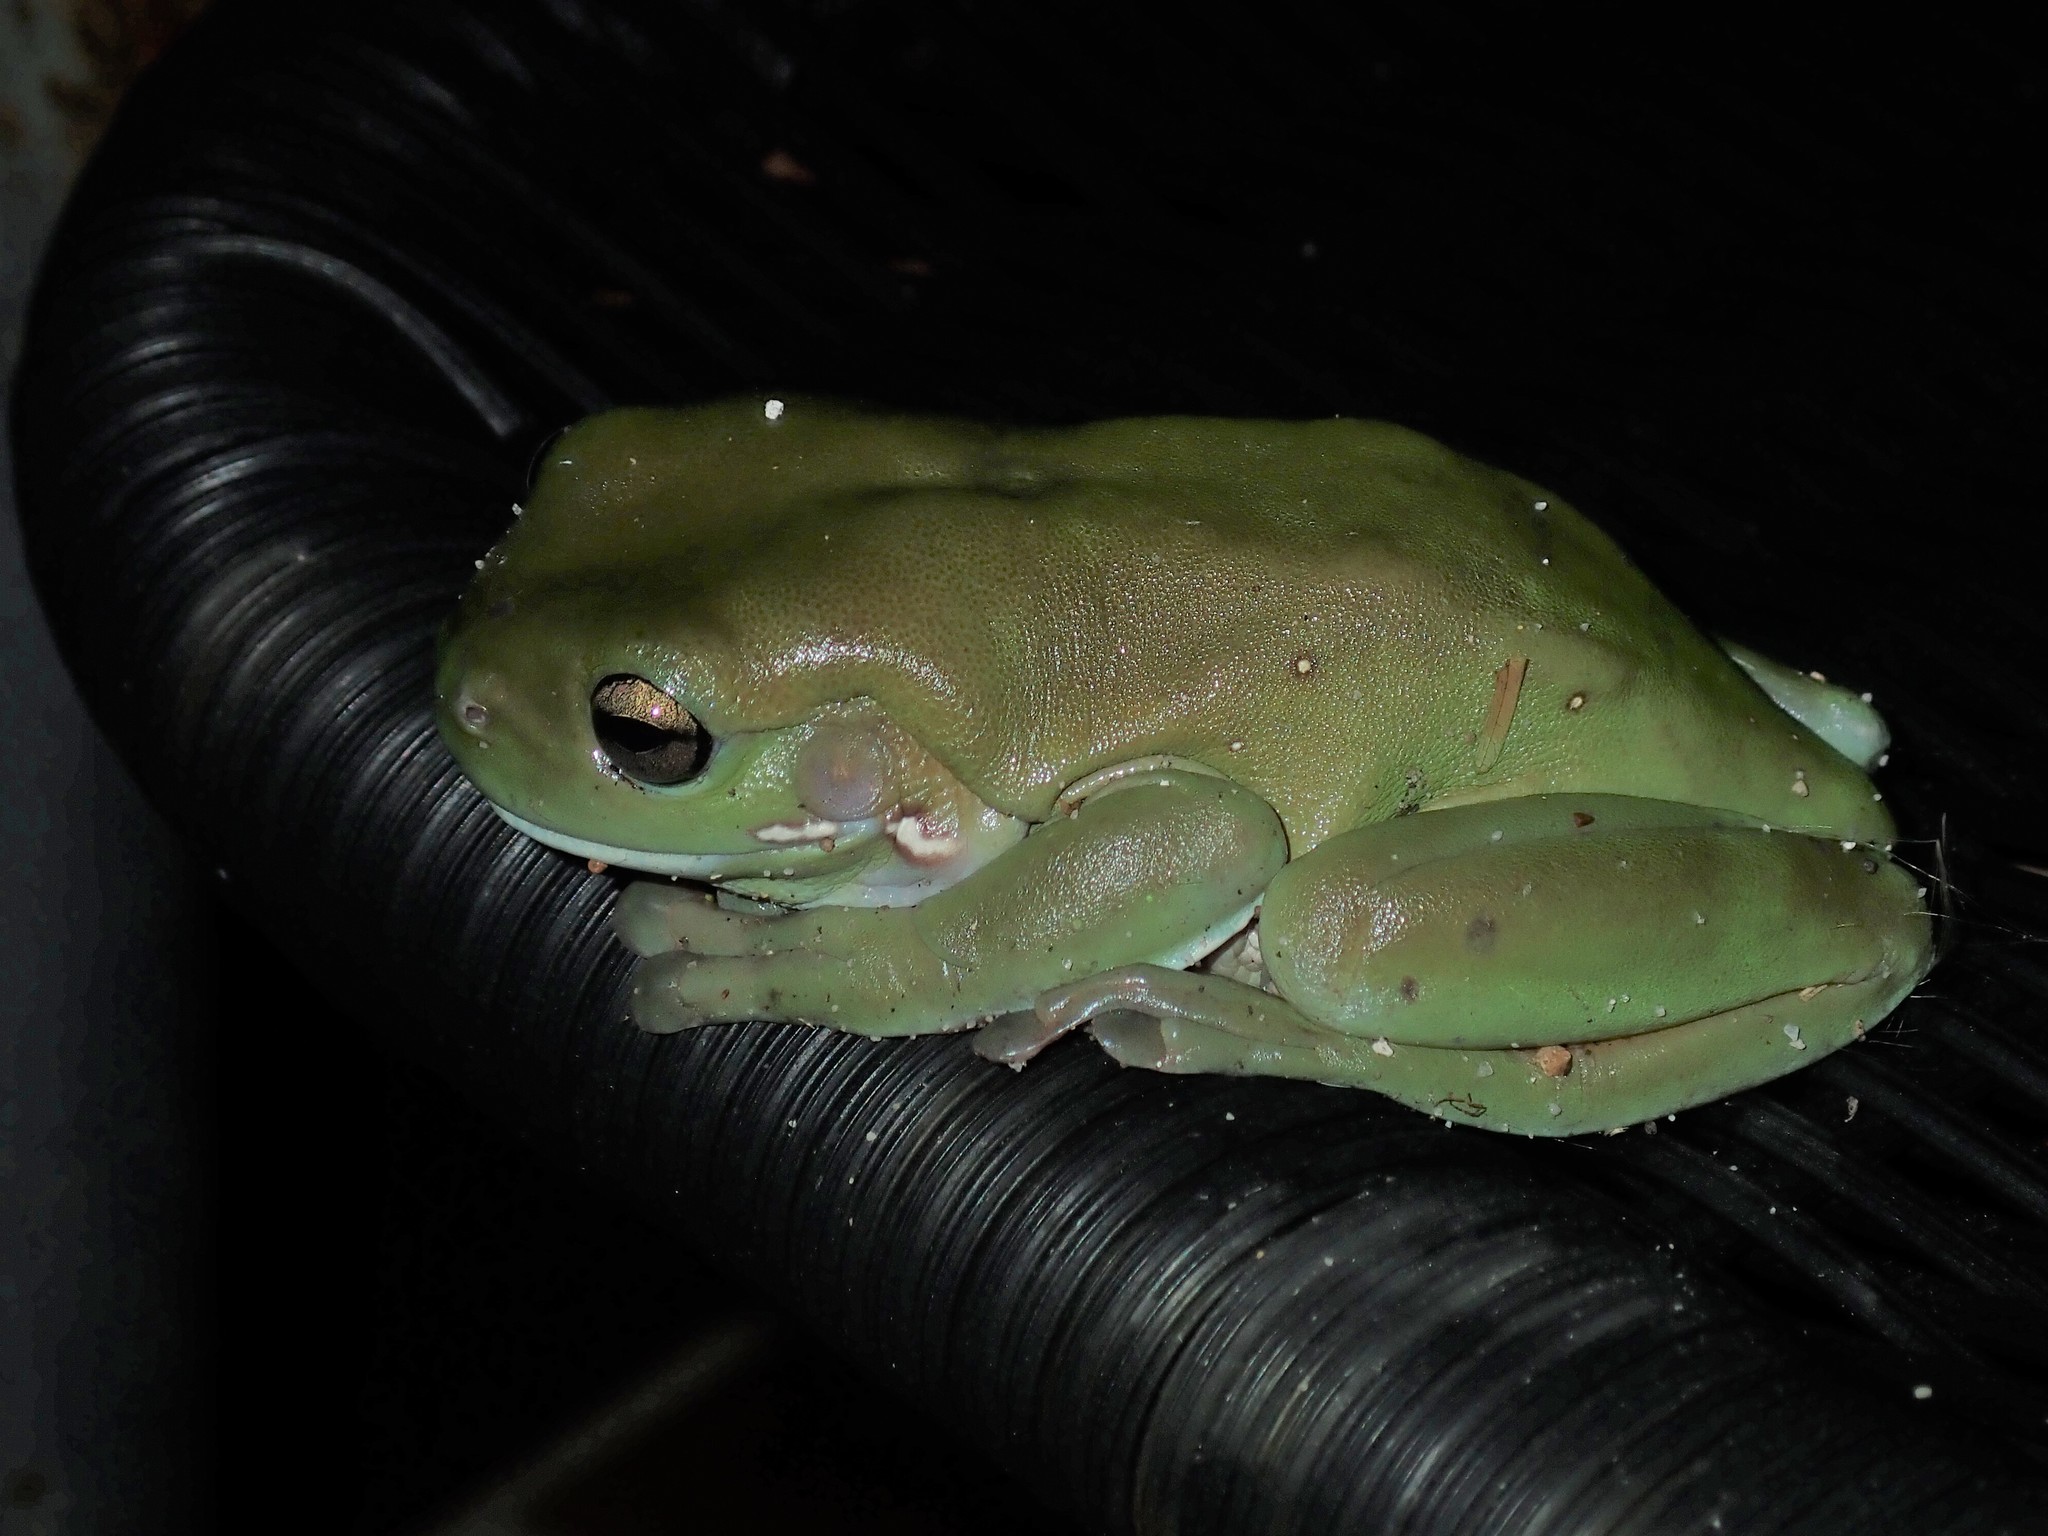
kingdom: Animalia
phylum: Chordata
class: Amphibia
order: Anura
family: Pelodryadidae
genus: Ranoidea
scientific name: Ranoidea caerulea
